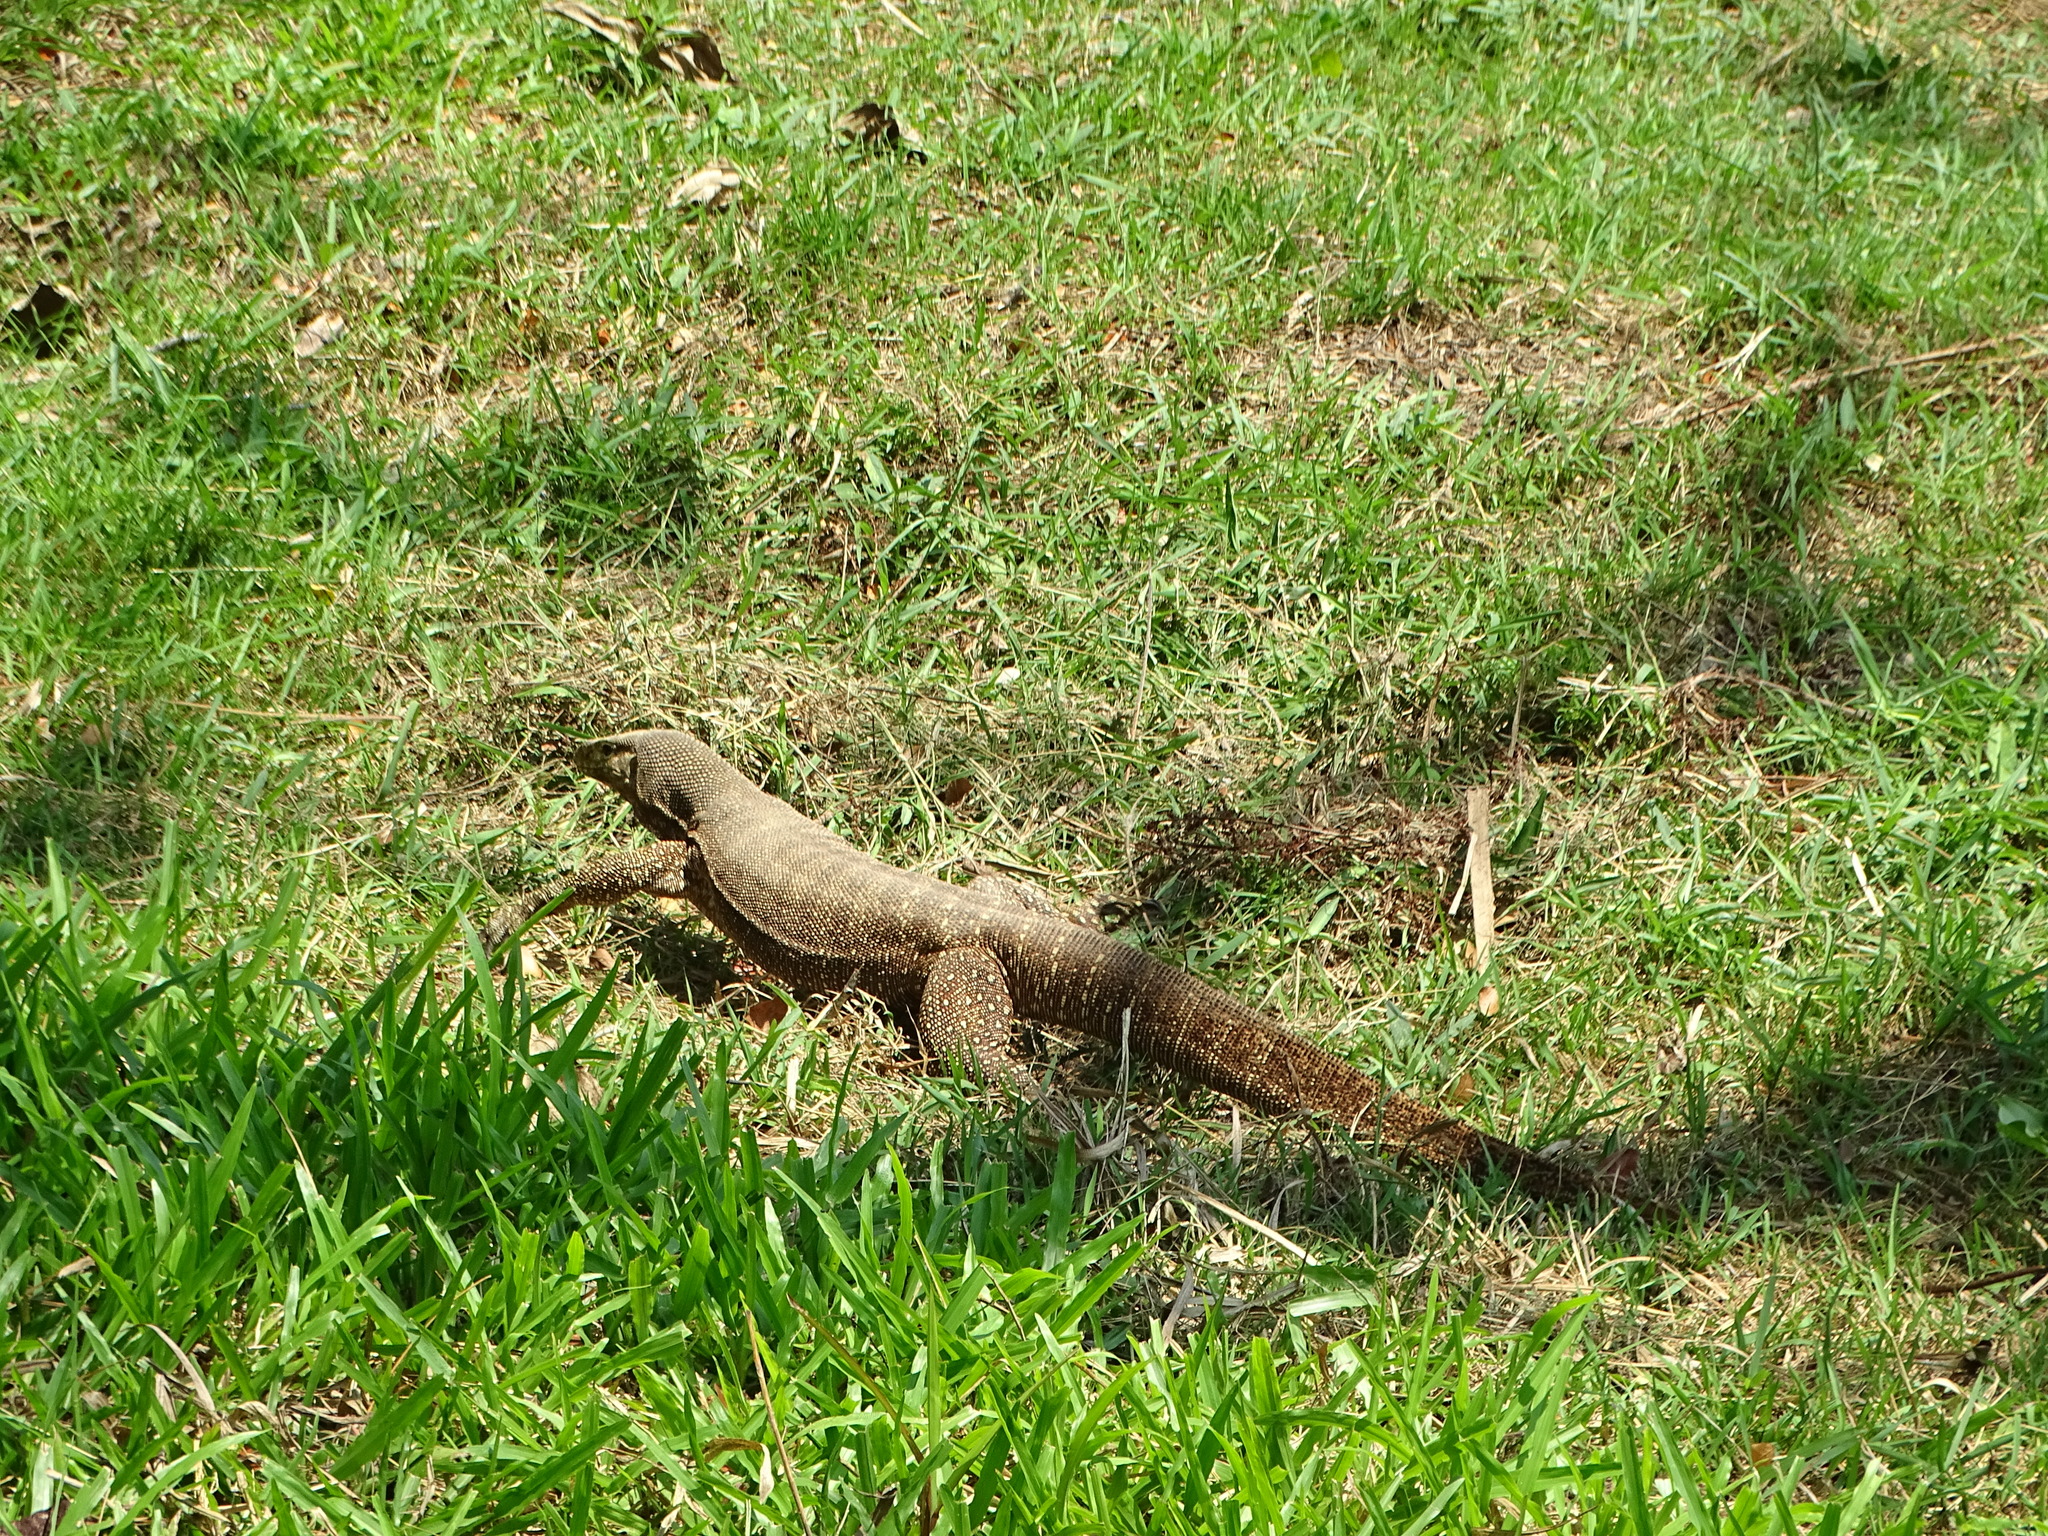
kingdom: Animalia
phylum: Chordata
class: Squamata
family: Varanidae
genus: Varanus
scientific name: Varanus nebulosus
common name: Clouded monitor
